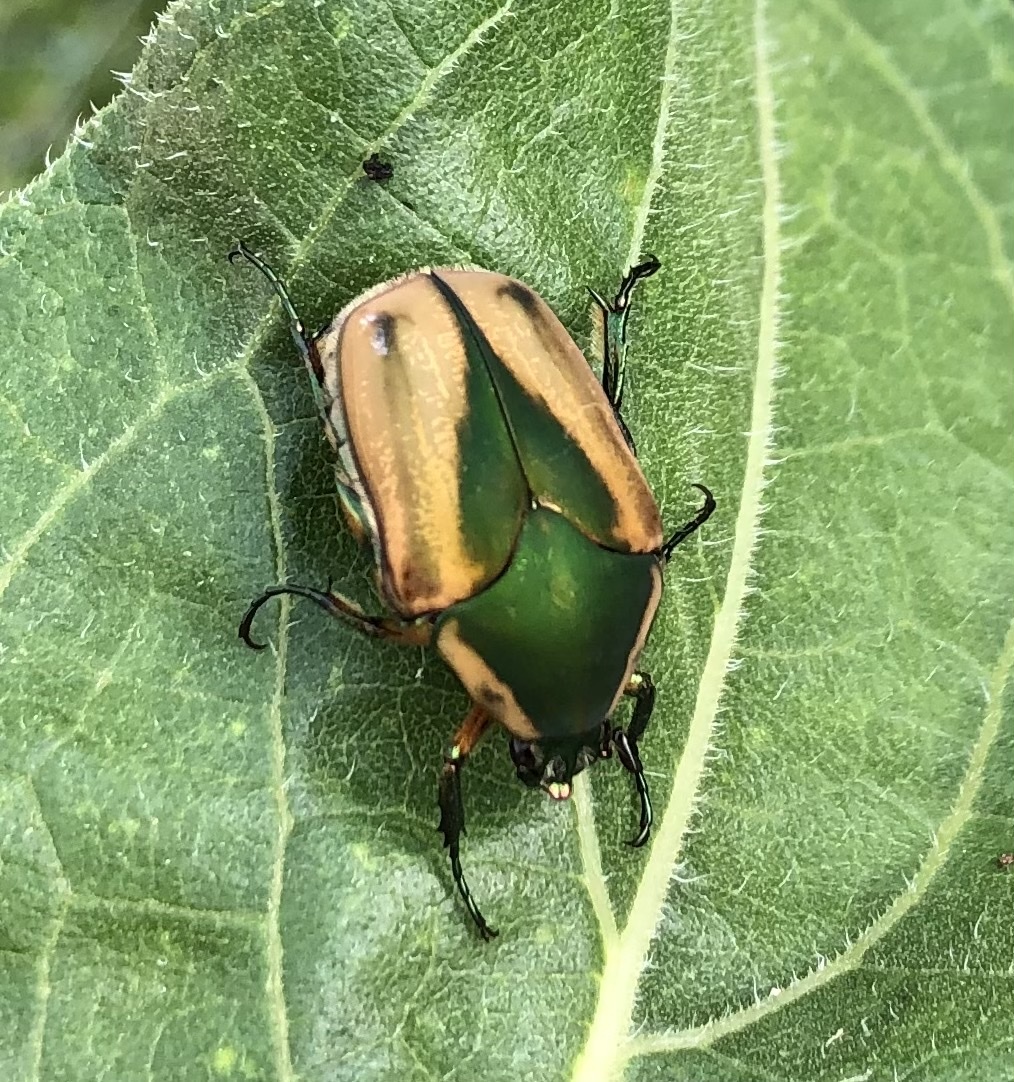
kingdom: Animalia
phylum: Arthropoda
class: Insecta
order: Coleoptera
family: Scarabaeidae
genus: Cotinis
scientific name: Cotinis nitida
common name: Common green june beetle
